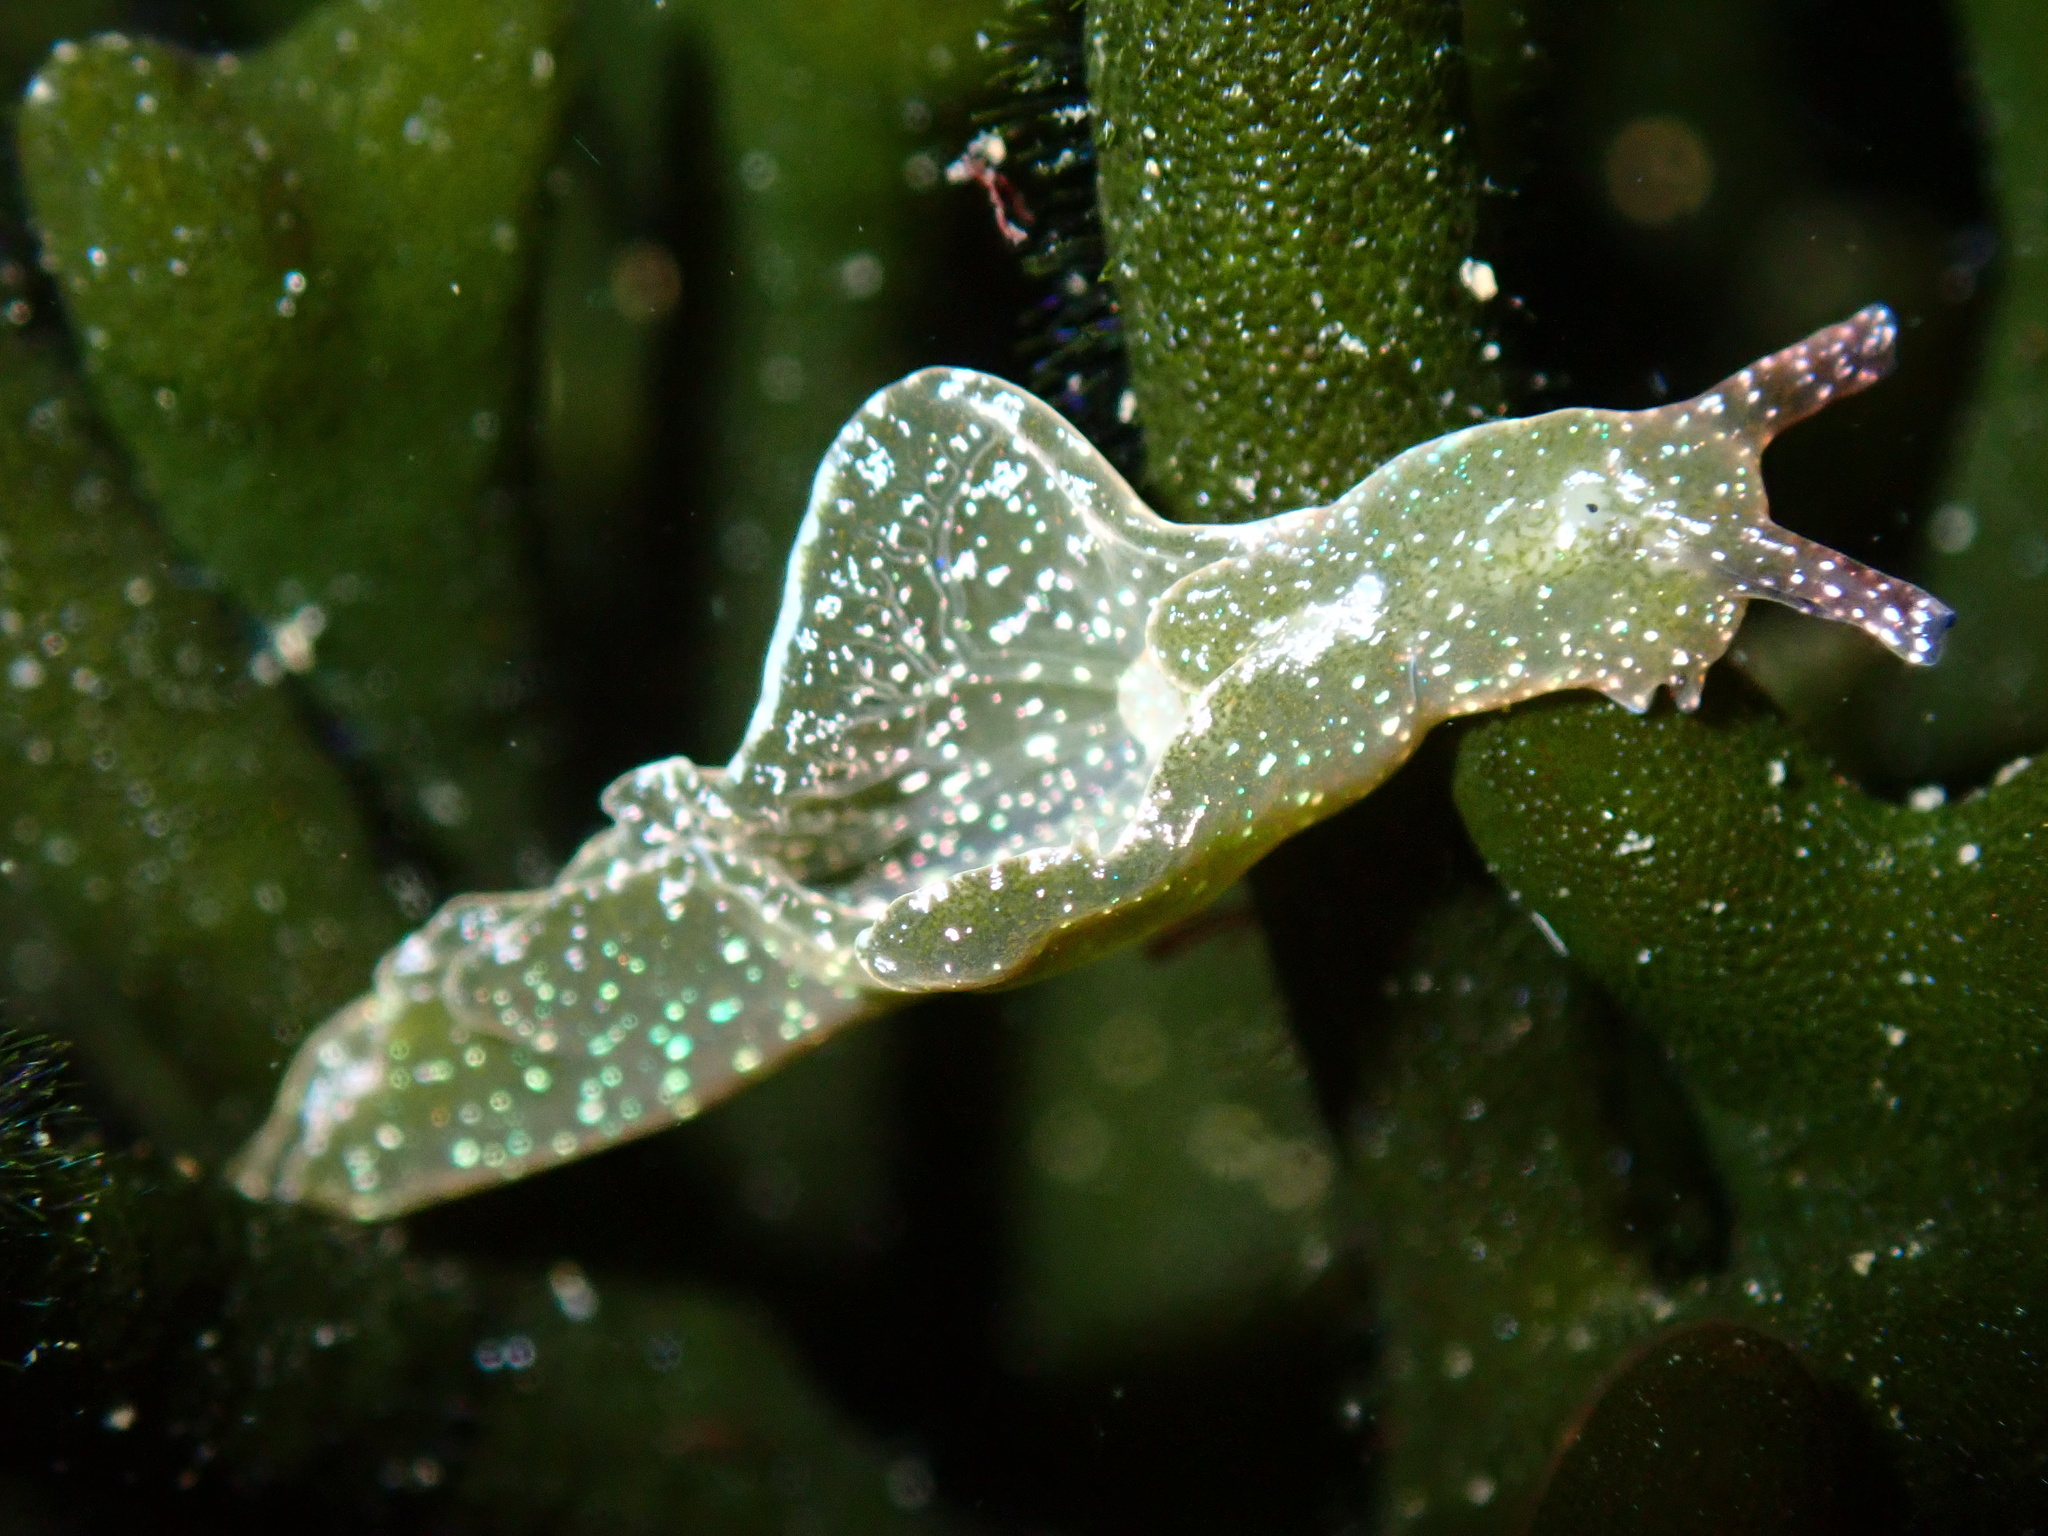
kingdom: Animalia
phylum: Mollusca
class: Gastropoda
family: Plakobranchidae
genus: Elysia
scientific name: Elysia viridis
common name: Green elysia
